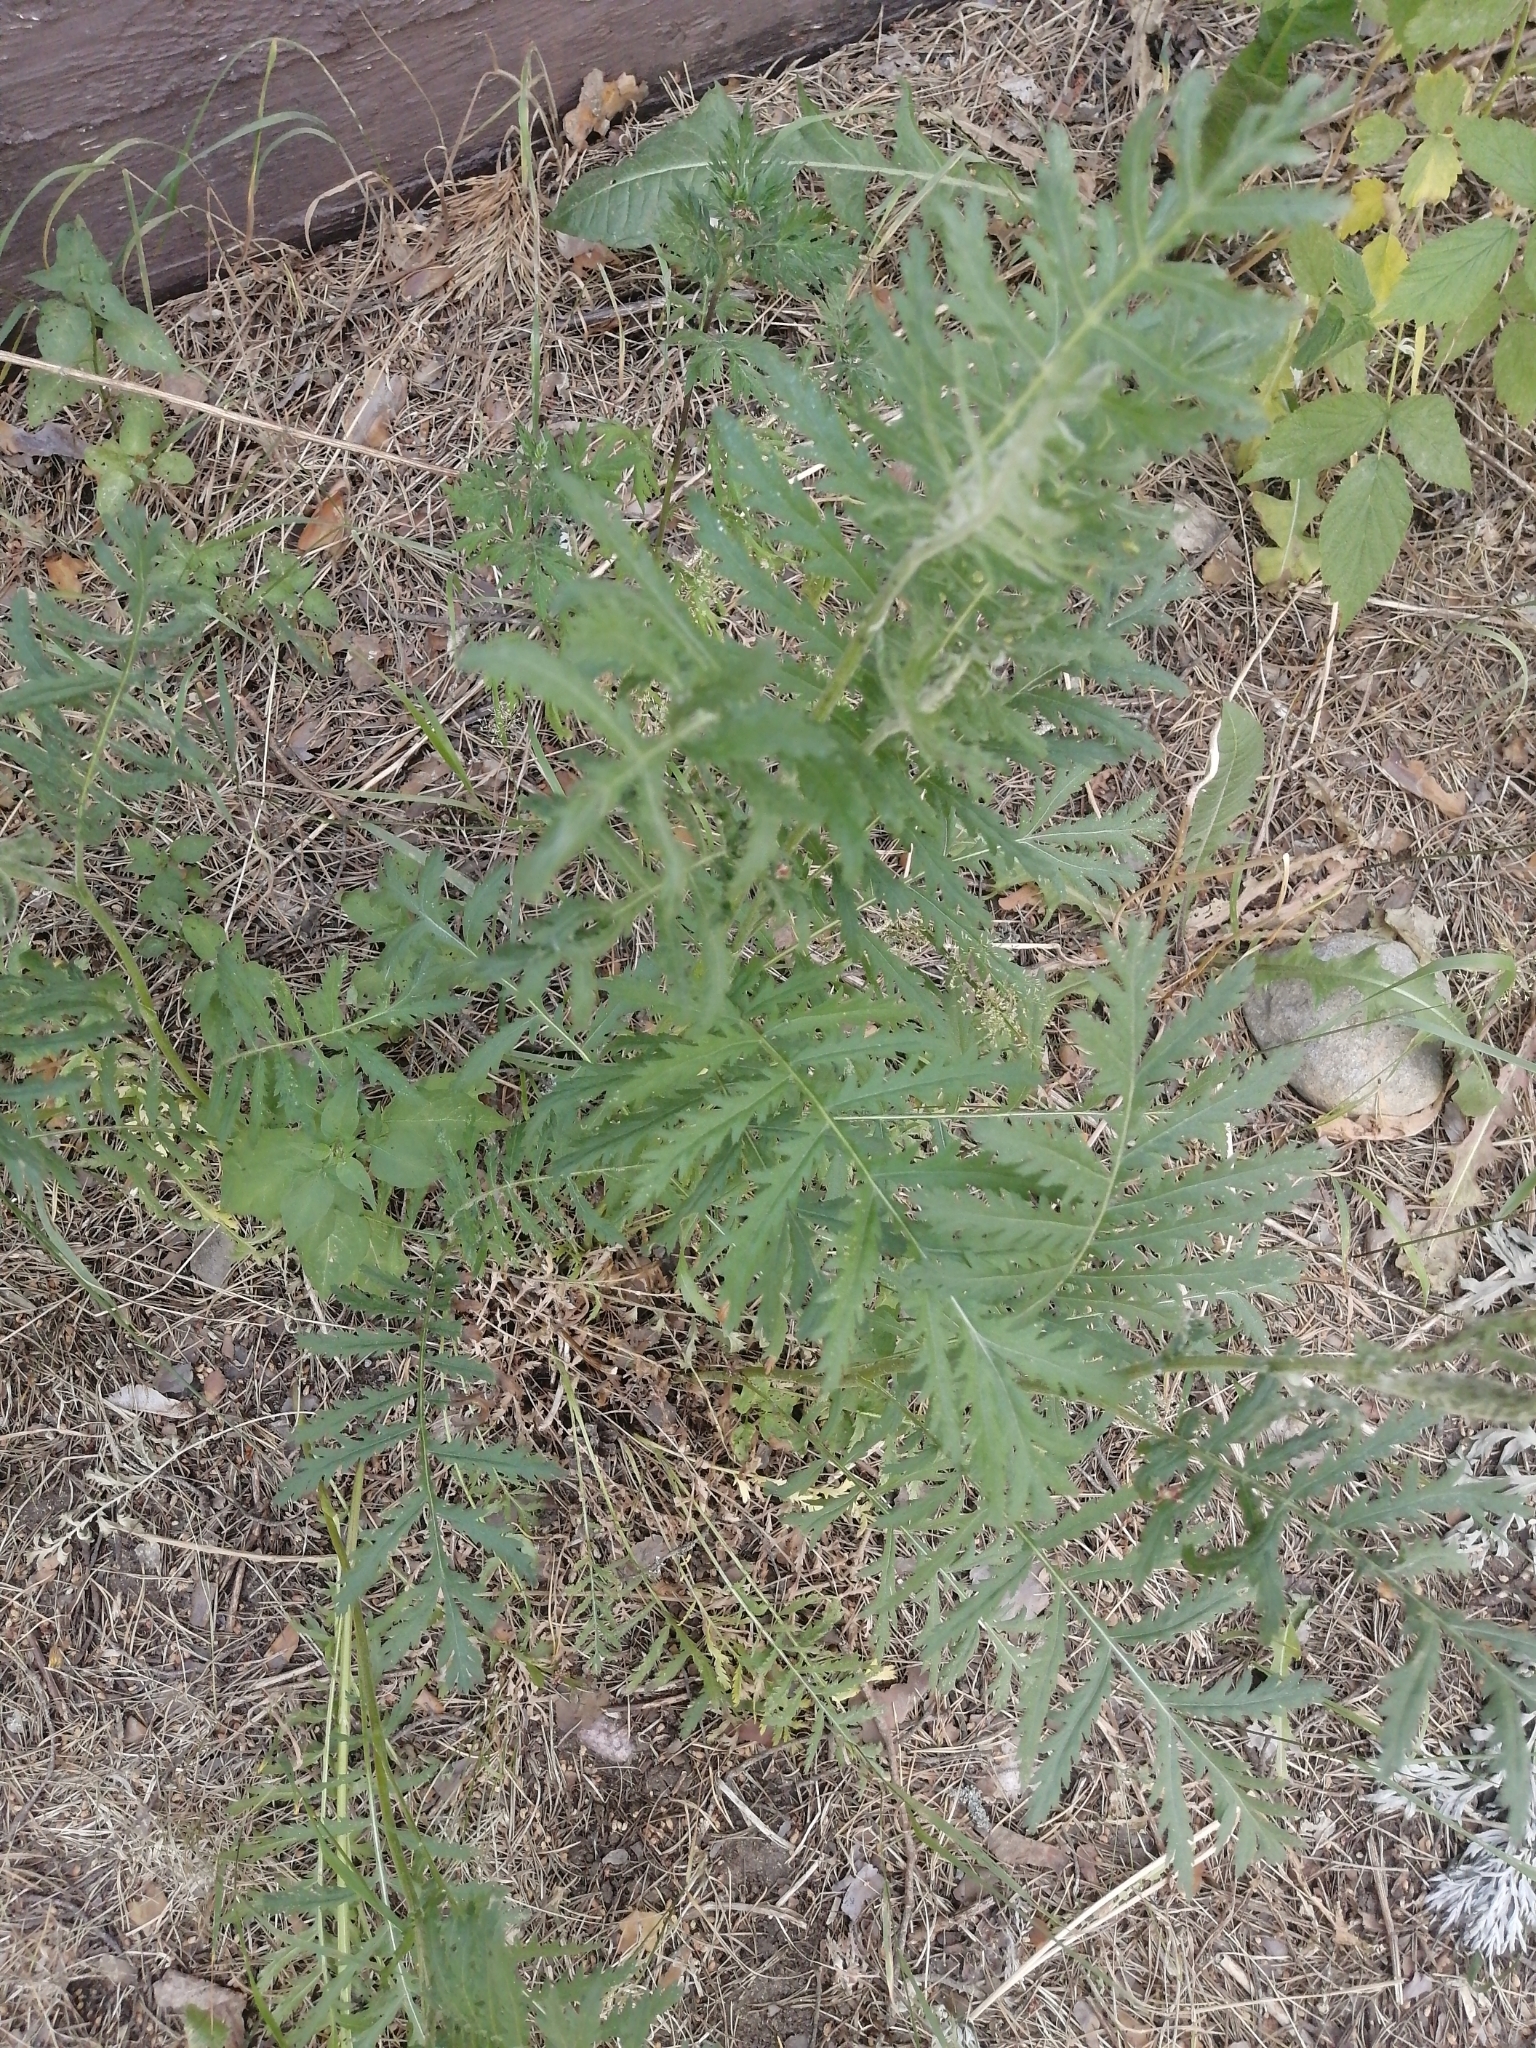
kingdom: Plantae
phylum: Tracheophyta
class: Magnoliopsida
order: Asterales
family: Asteraceae
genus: Tanacetum
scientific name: Tanacetum vulgare
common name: Common tansy
